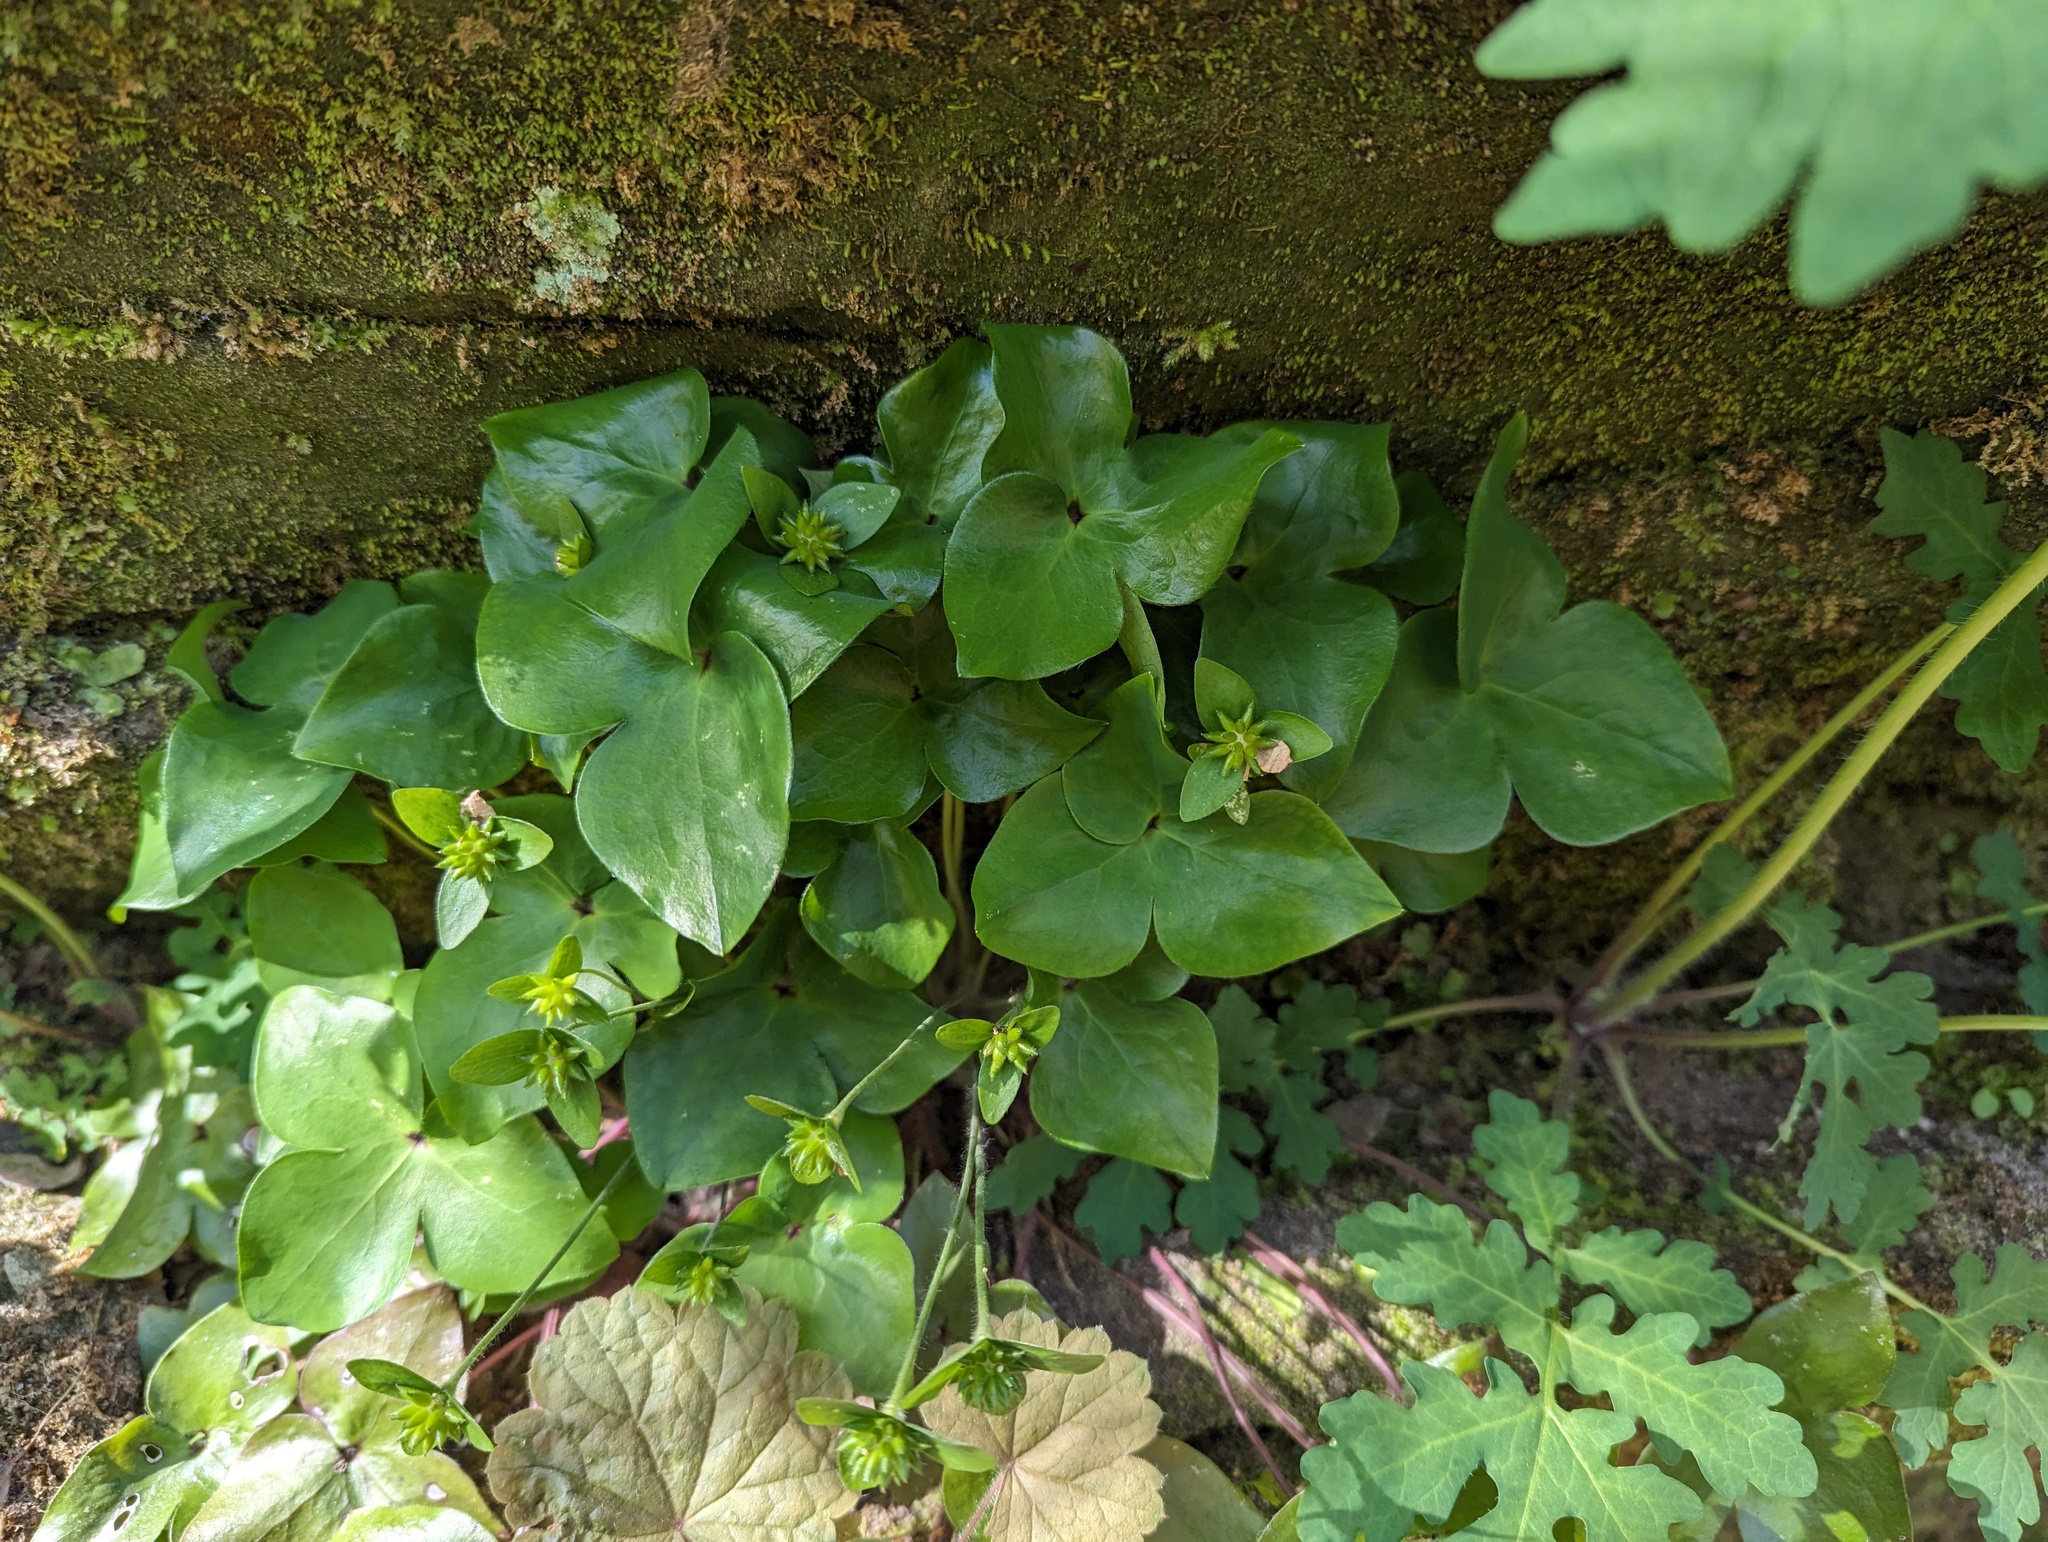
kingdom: Plantae
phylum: Tracheophyta
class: Magnoliopsida
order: Ranunculales
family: Ranunculaceae
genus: Hepatica
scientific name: Hepatica acutiloba
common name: Sharp-lobed hepatica
